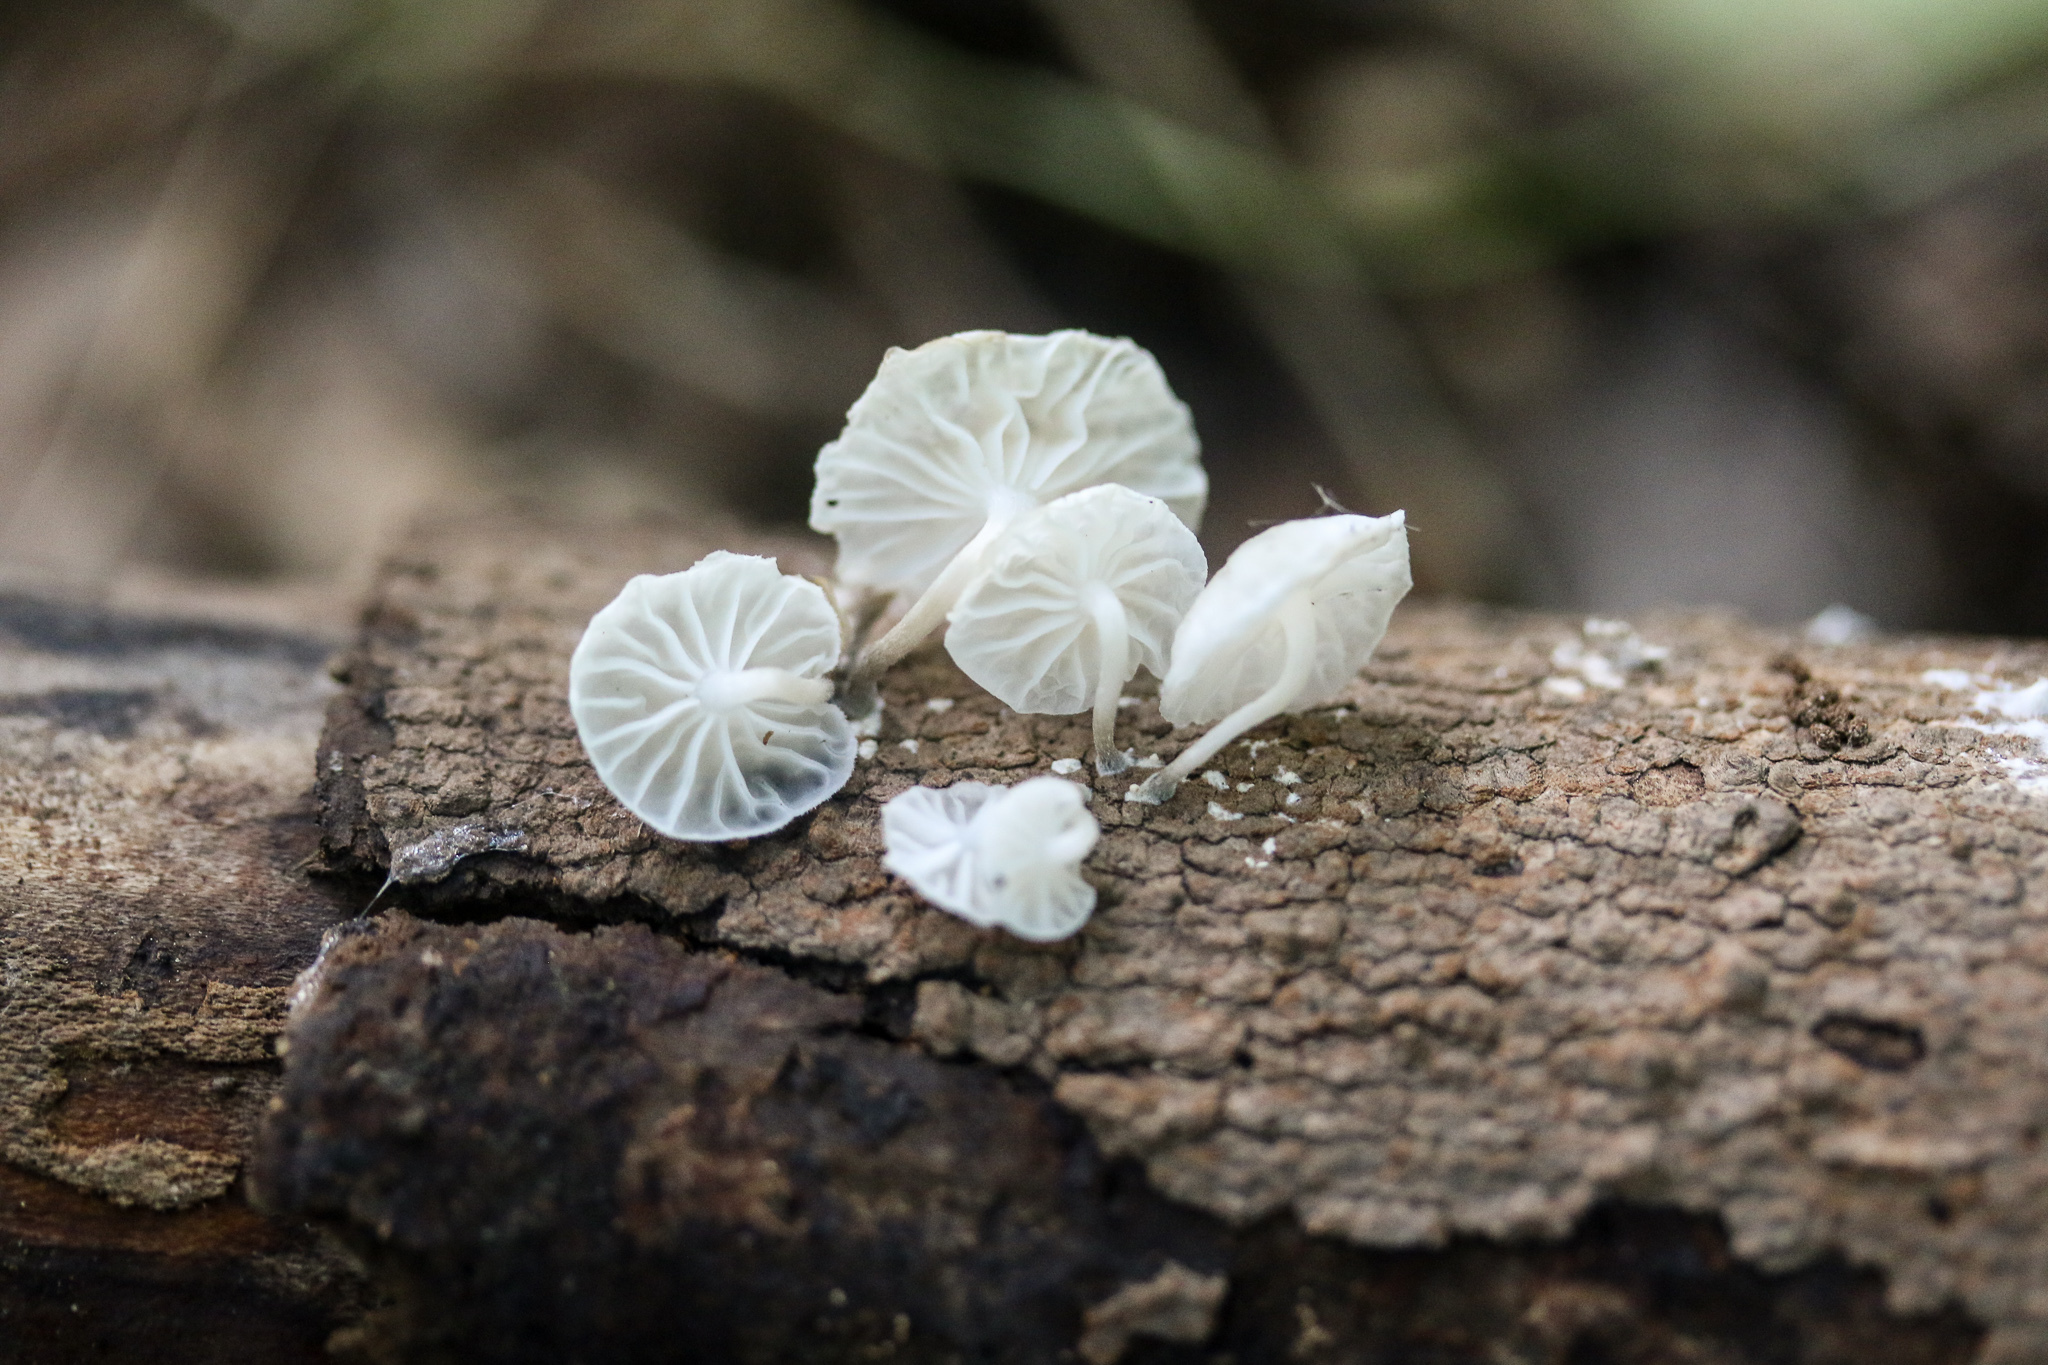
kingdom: Fungi
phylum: Basidiomycota
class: Agaricomycetes
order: Agaricales
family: Omphalotaceae
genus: Marasmiellus
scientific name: Marasmiellus candidus
